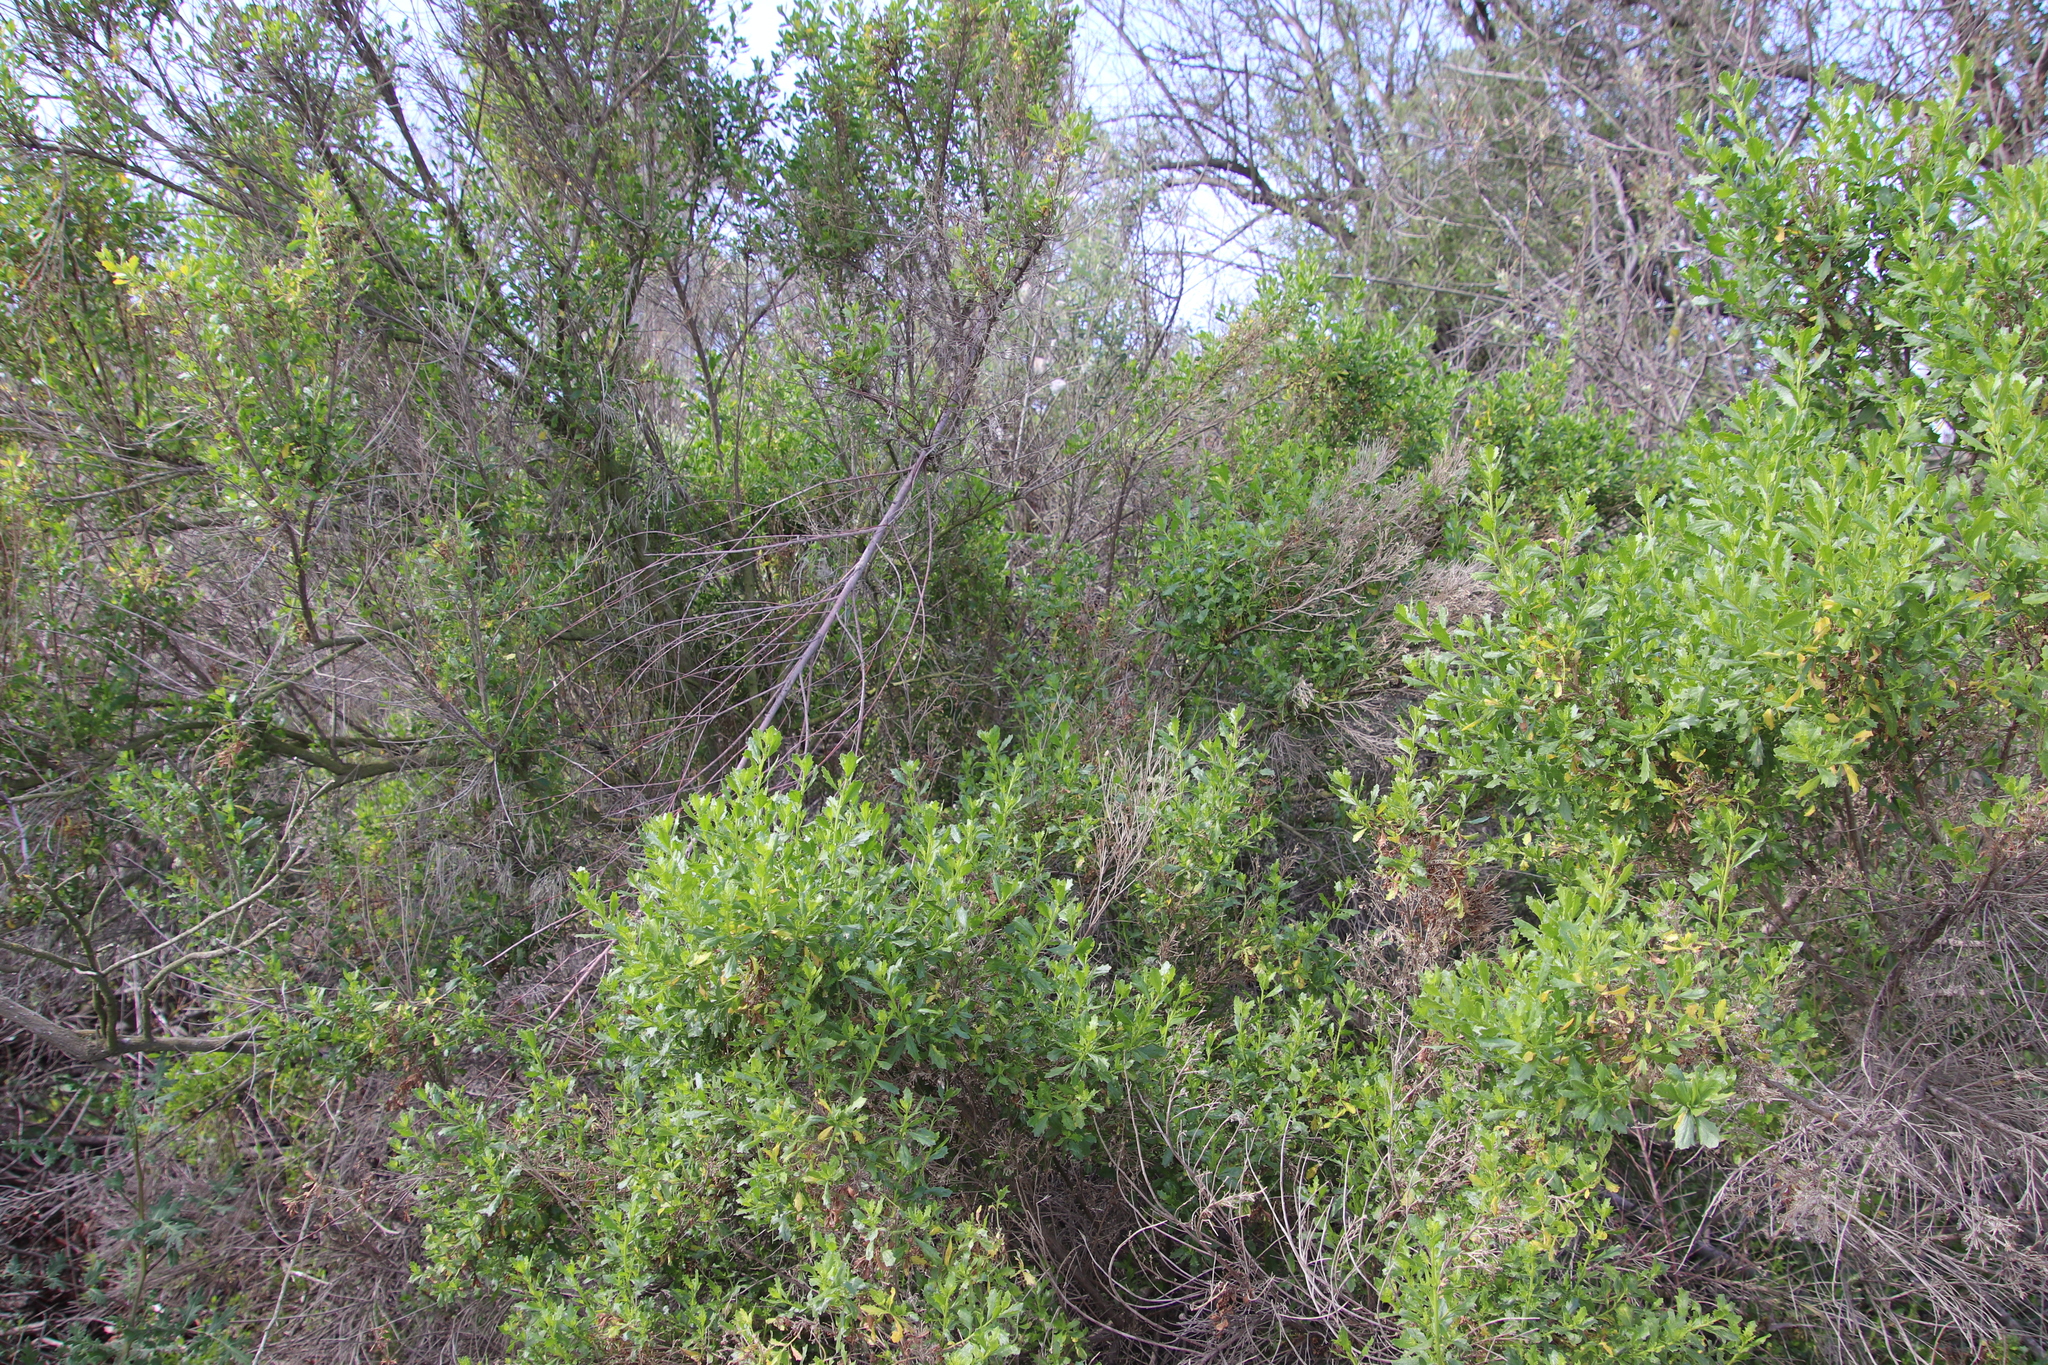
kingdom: Plantae
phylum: Tracheophyta
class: Magnoliopsida
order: Asterales
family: Asteraceae
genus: Baccharis
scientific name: Baccharis pilularis
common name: Coyotebrush
